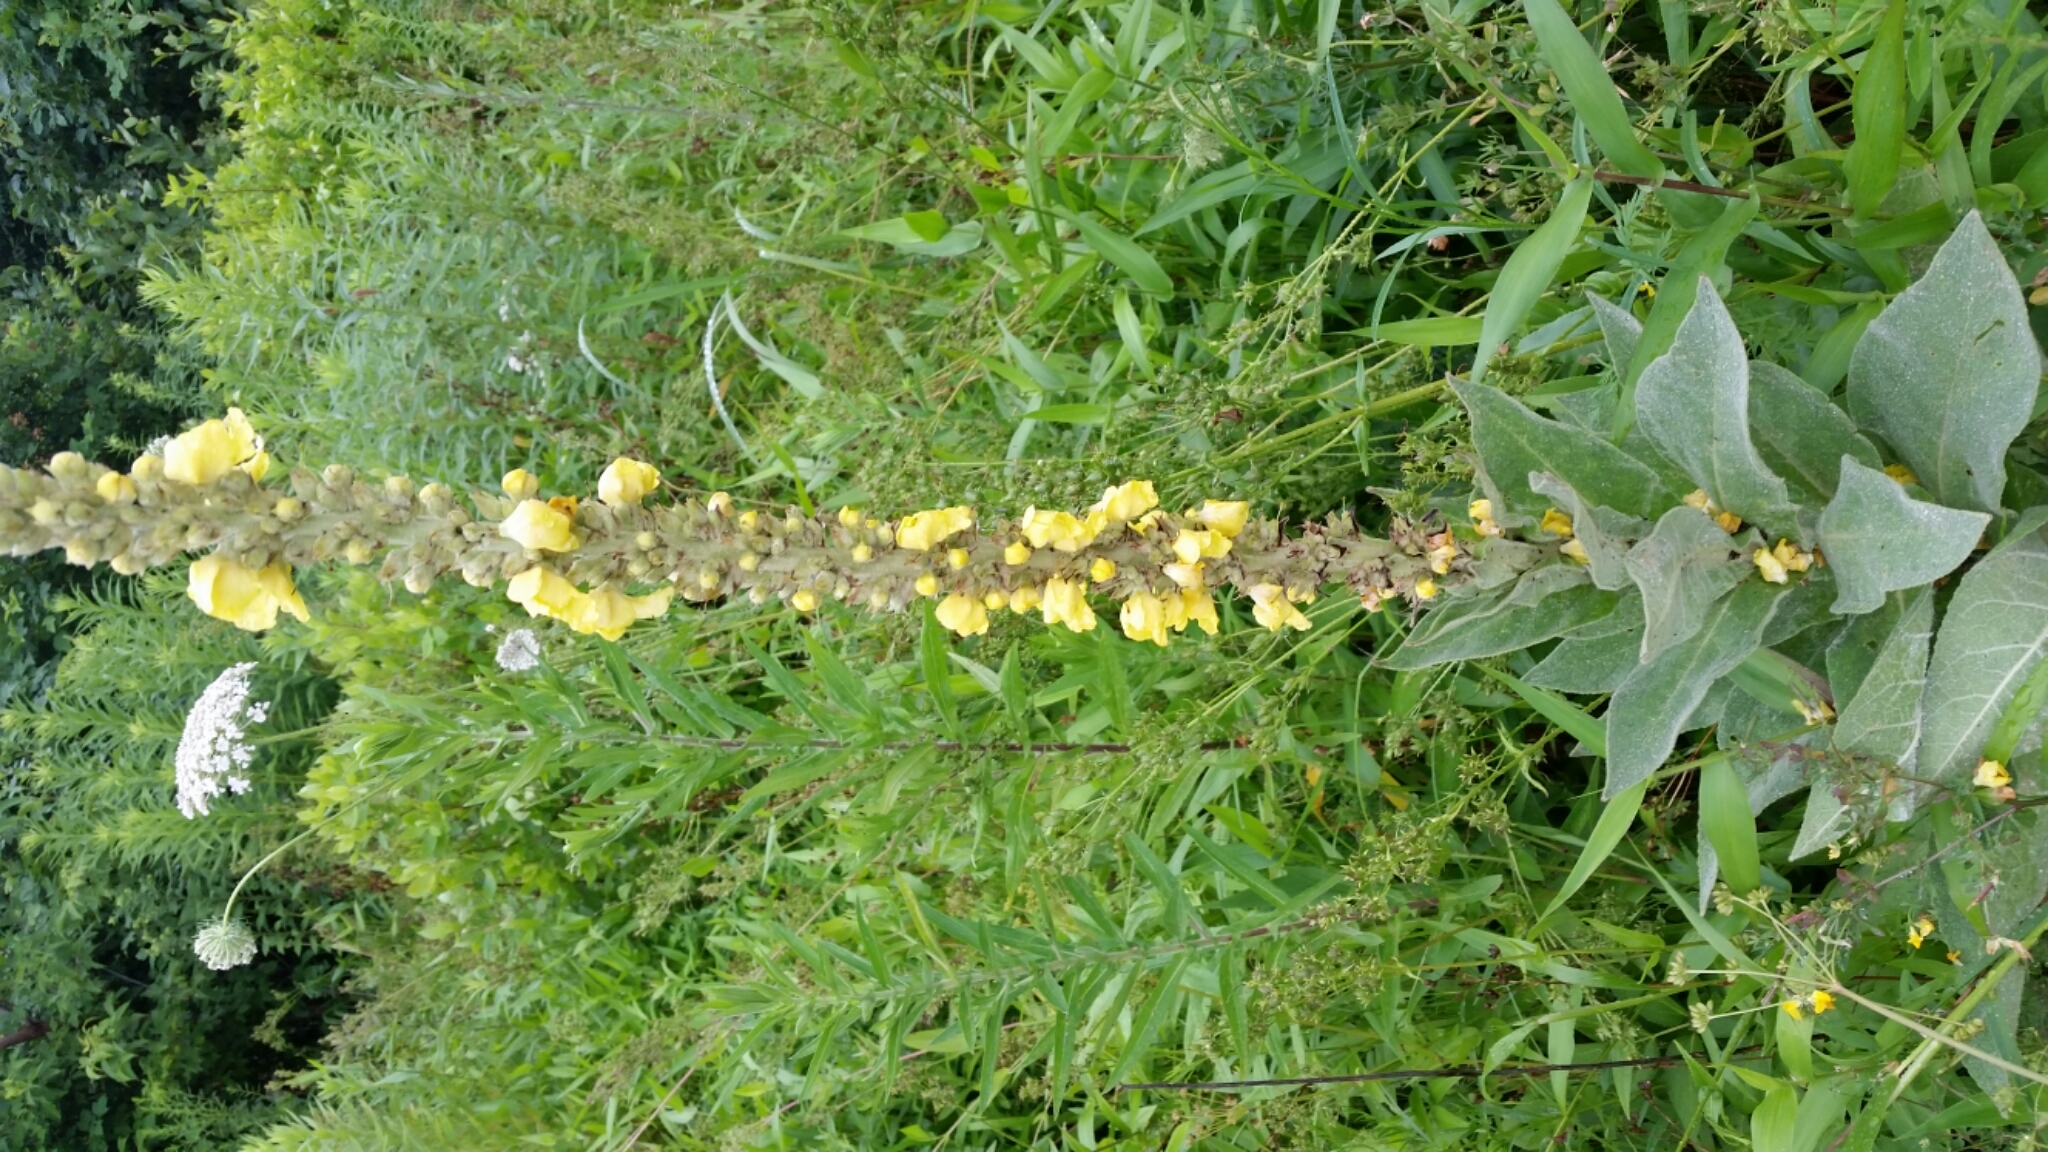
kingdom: Plantae
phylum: Tracheophyta
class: Magnoliopsida
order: Lamiales
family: Scrophulariaceae
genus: Verbascum
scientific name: Verbascum thapsus
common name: Common mullein
